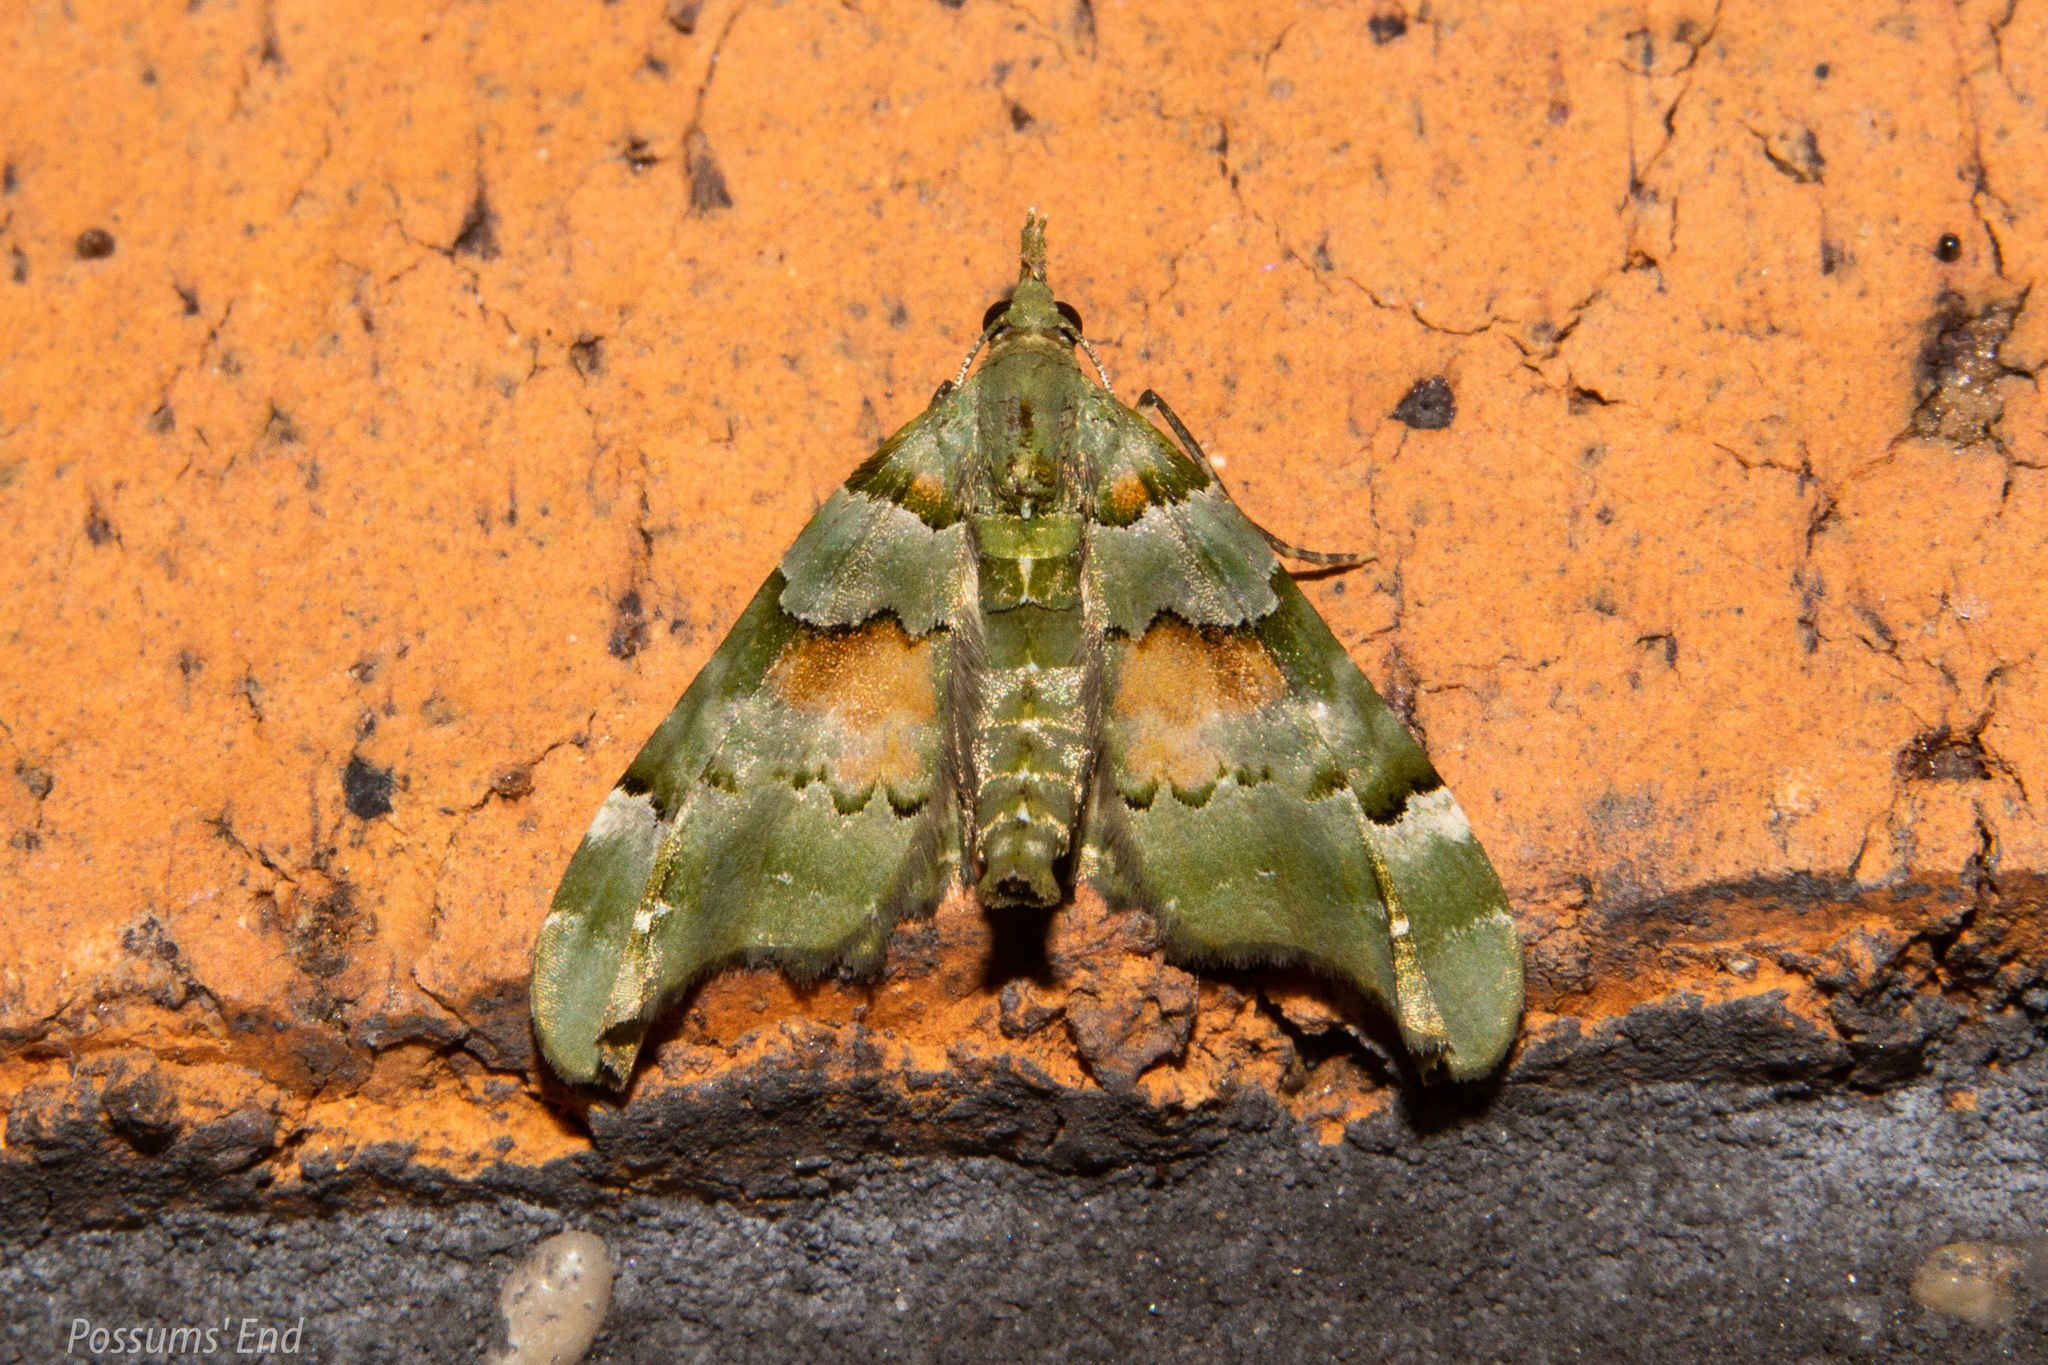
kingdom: Animalia
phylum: Arthropoda
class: Insecta
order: Lepidoptera
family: Geometridae
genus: Elvia
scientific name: Elvia glaucata
